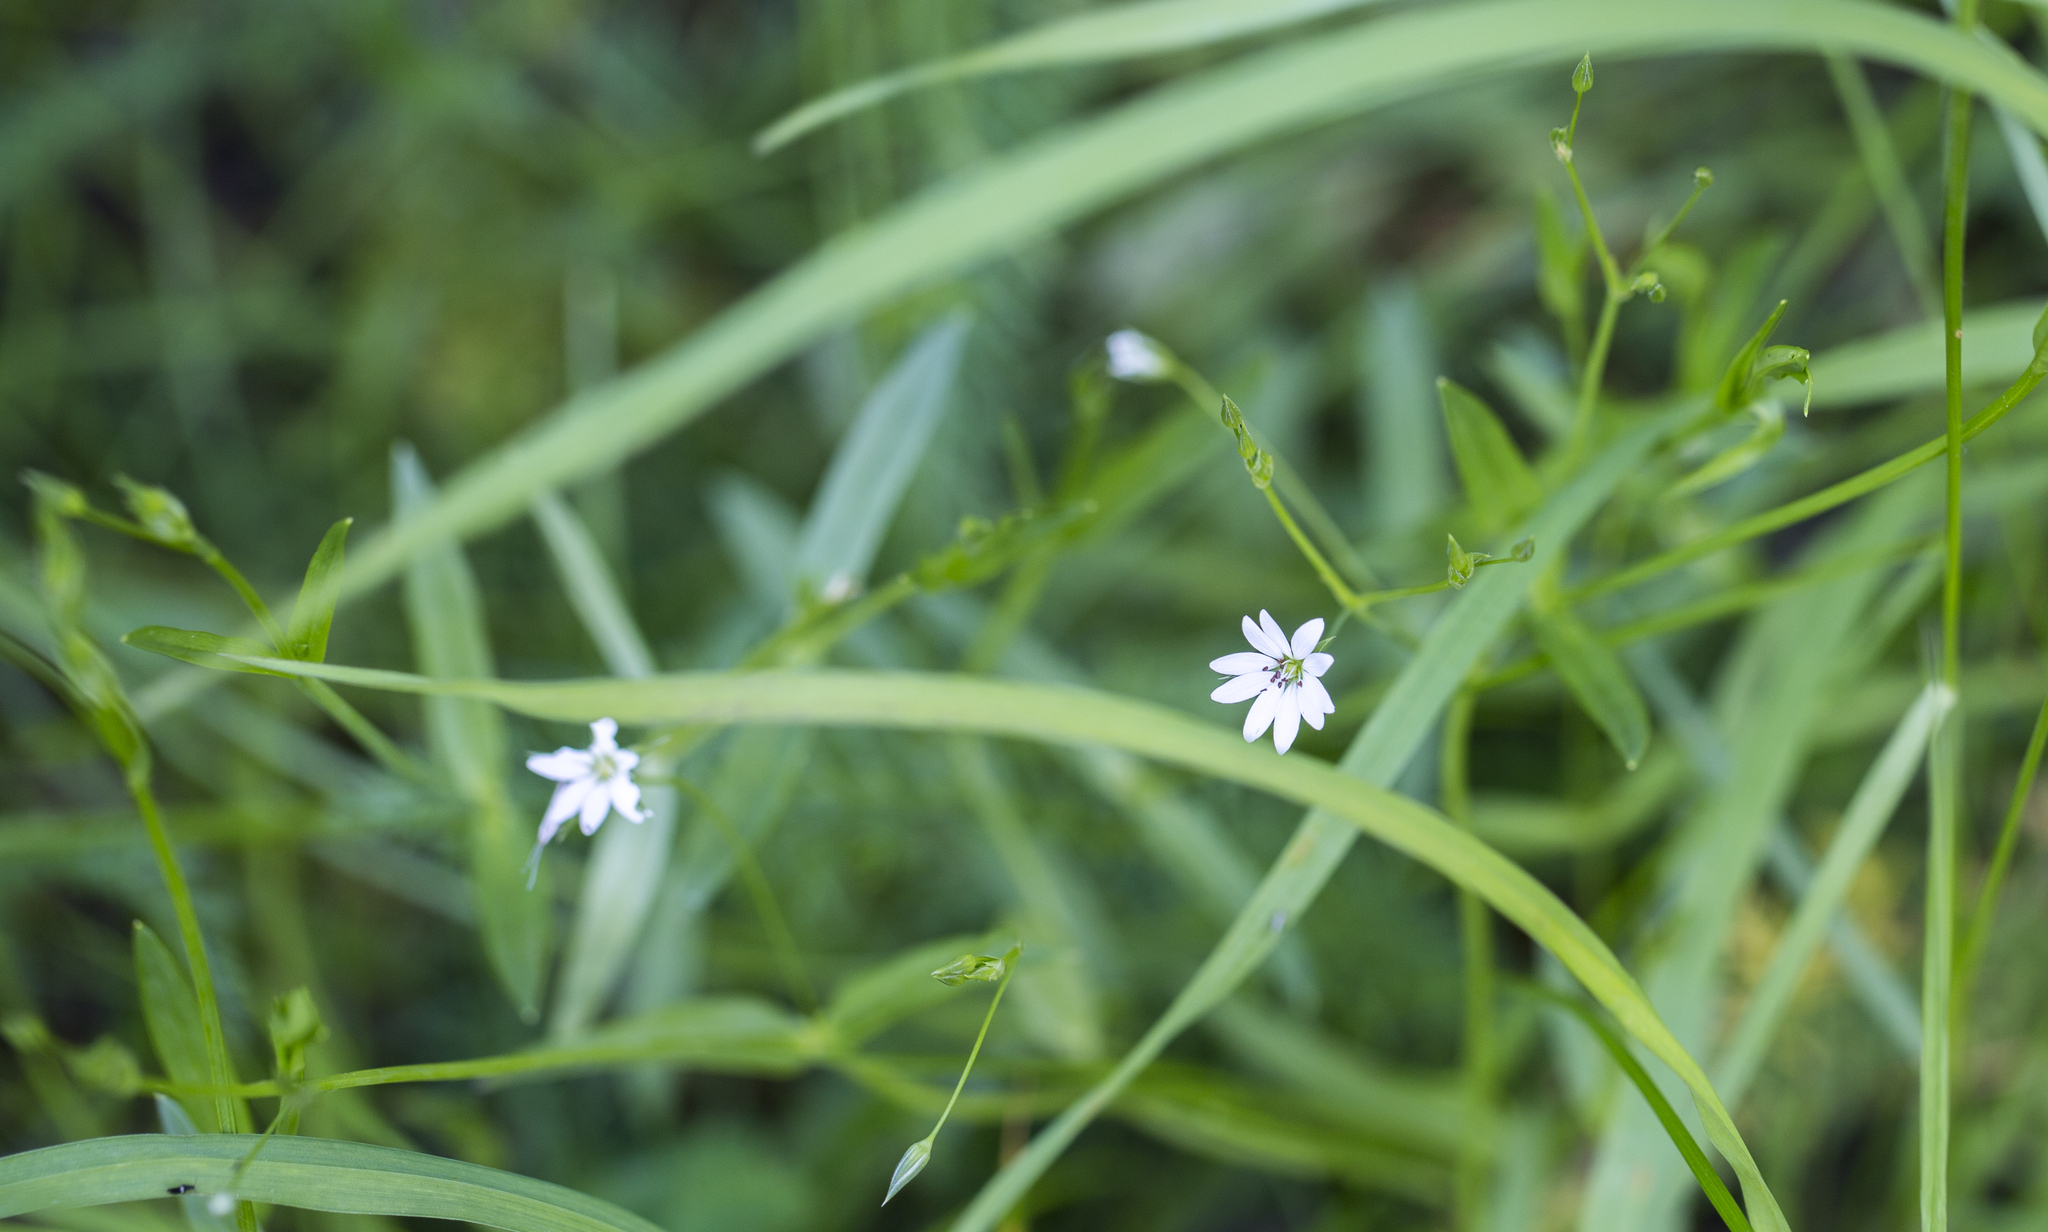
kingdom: Plantae
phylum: Tracheophyta
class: Magnoliopsida
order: Caryophyllales
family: Caryophyllaceae
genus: Stellaria
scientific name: Stellaria graminea
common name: Grass-like starwort
